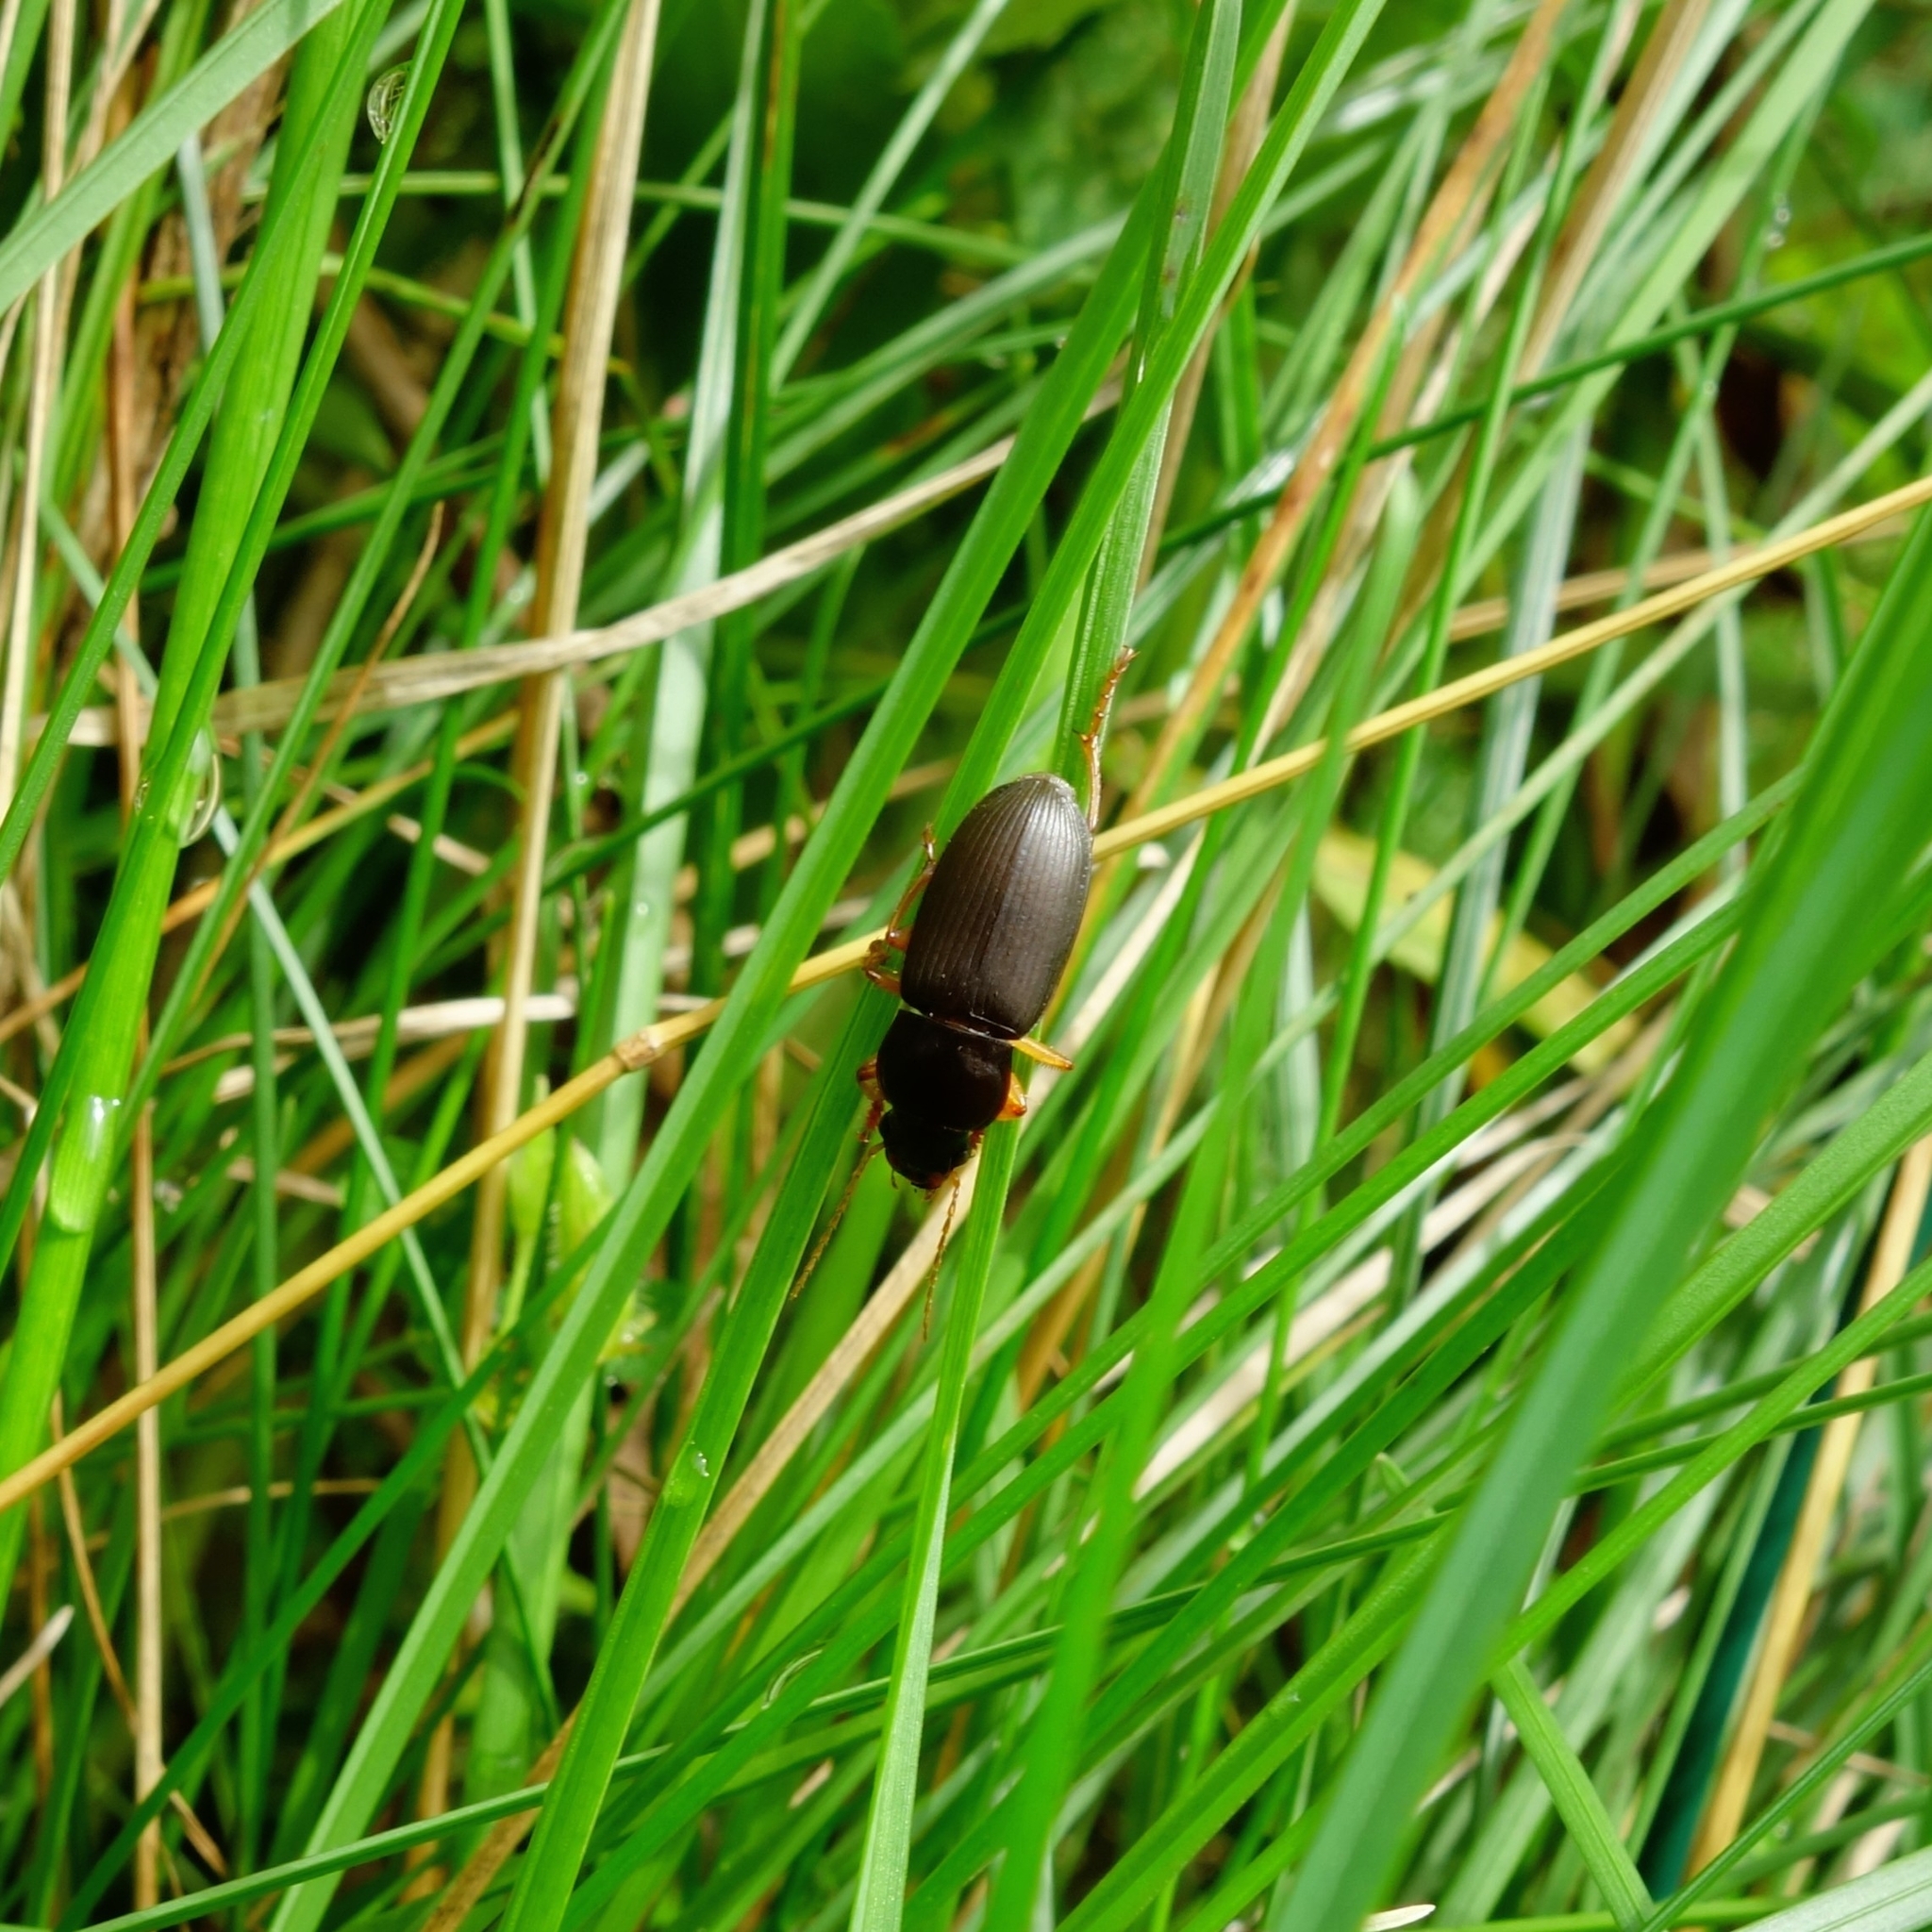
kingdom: Animalia
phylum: Arthropoda
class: Insecta
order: Coleoptera
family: Carabidae
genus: Pseudoophonus
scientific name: Pseudoophonus
